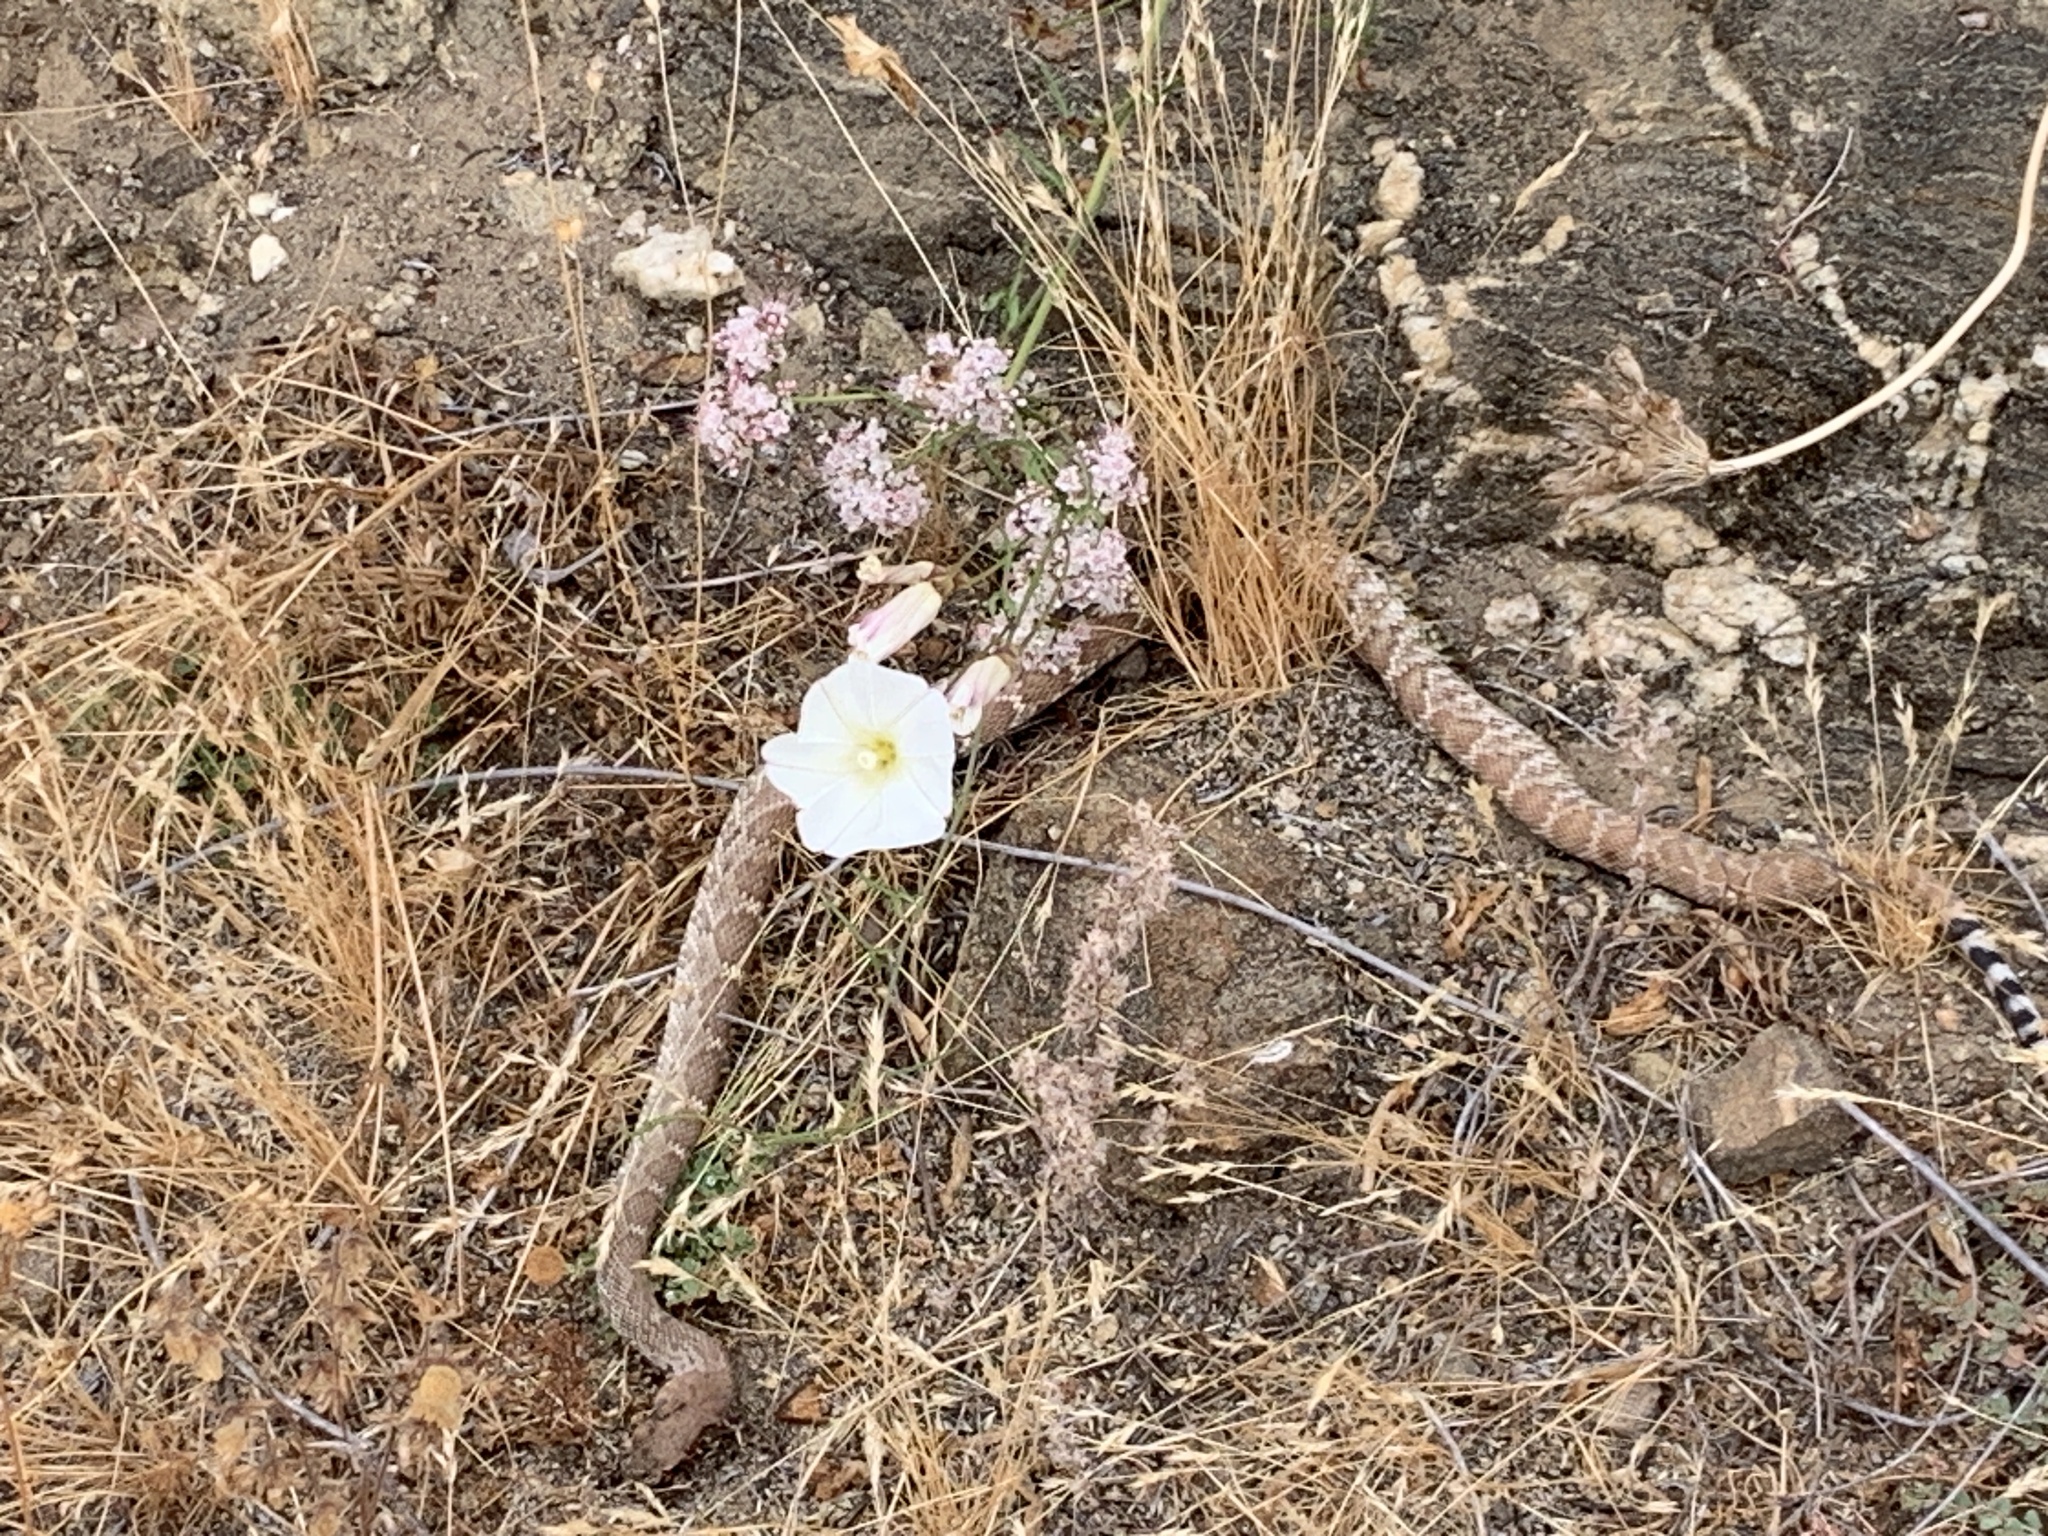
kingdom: Animalia
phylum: Chordata
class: Squamata
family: Viperidae
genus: Crotalus
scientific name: Crotalus ruber
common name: Red diamond rattlesnake
